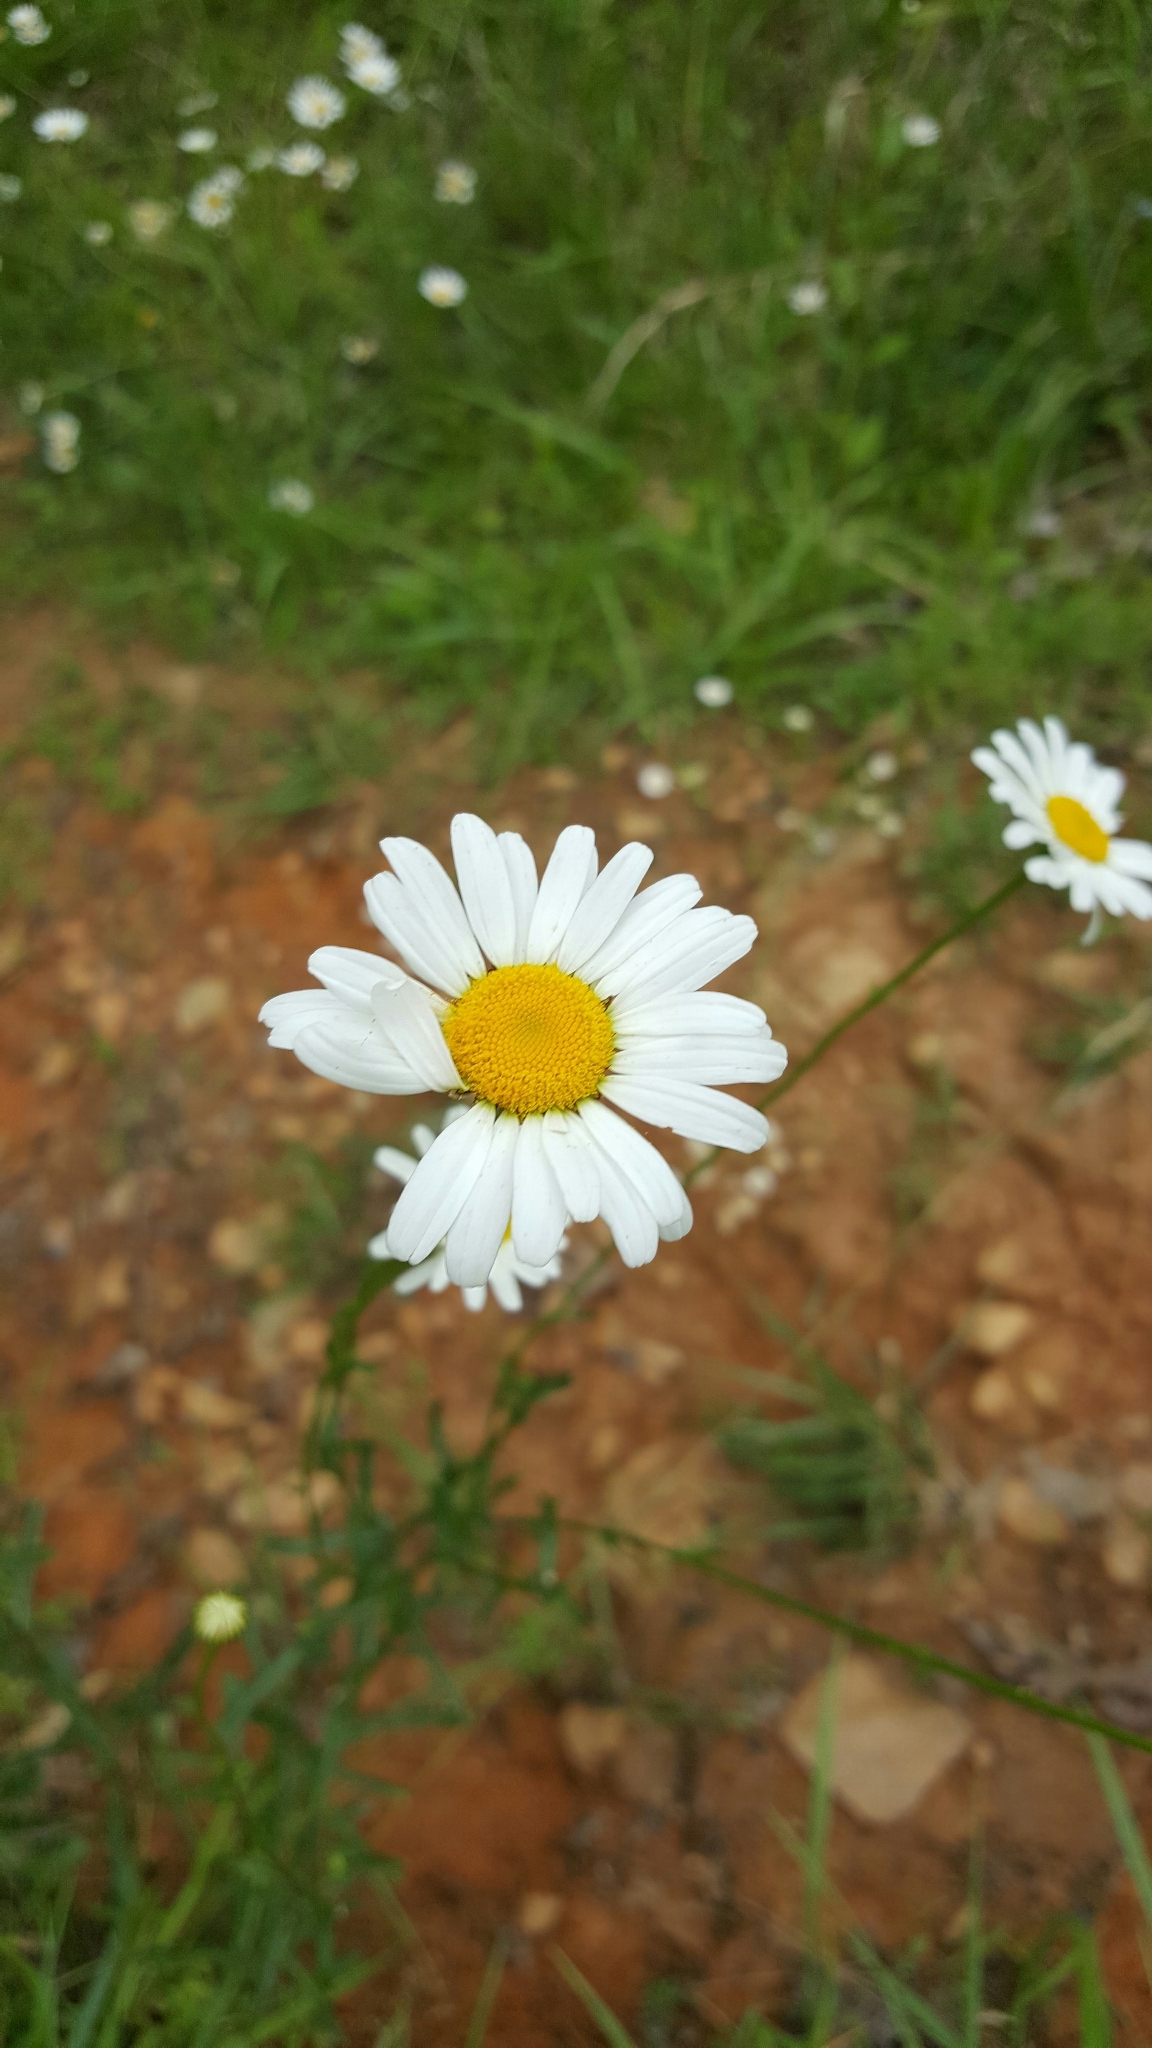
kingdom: Plantae
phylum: Tracheophyta
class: Magnoliopsida
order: Asterales
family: Asteraceae
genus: Leucanthemum
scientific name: Leucanthemum vulgare
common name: Oxeye daisy
